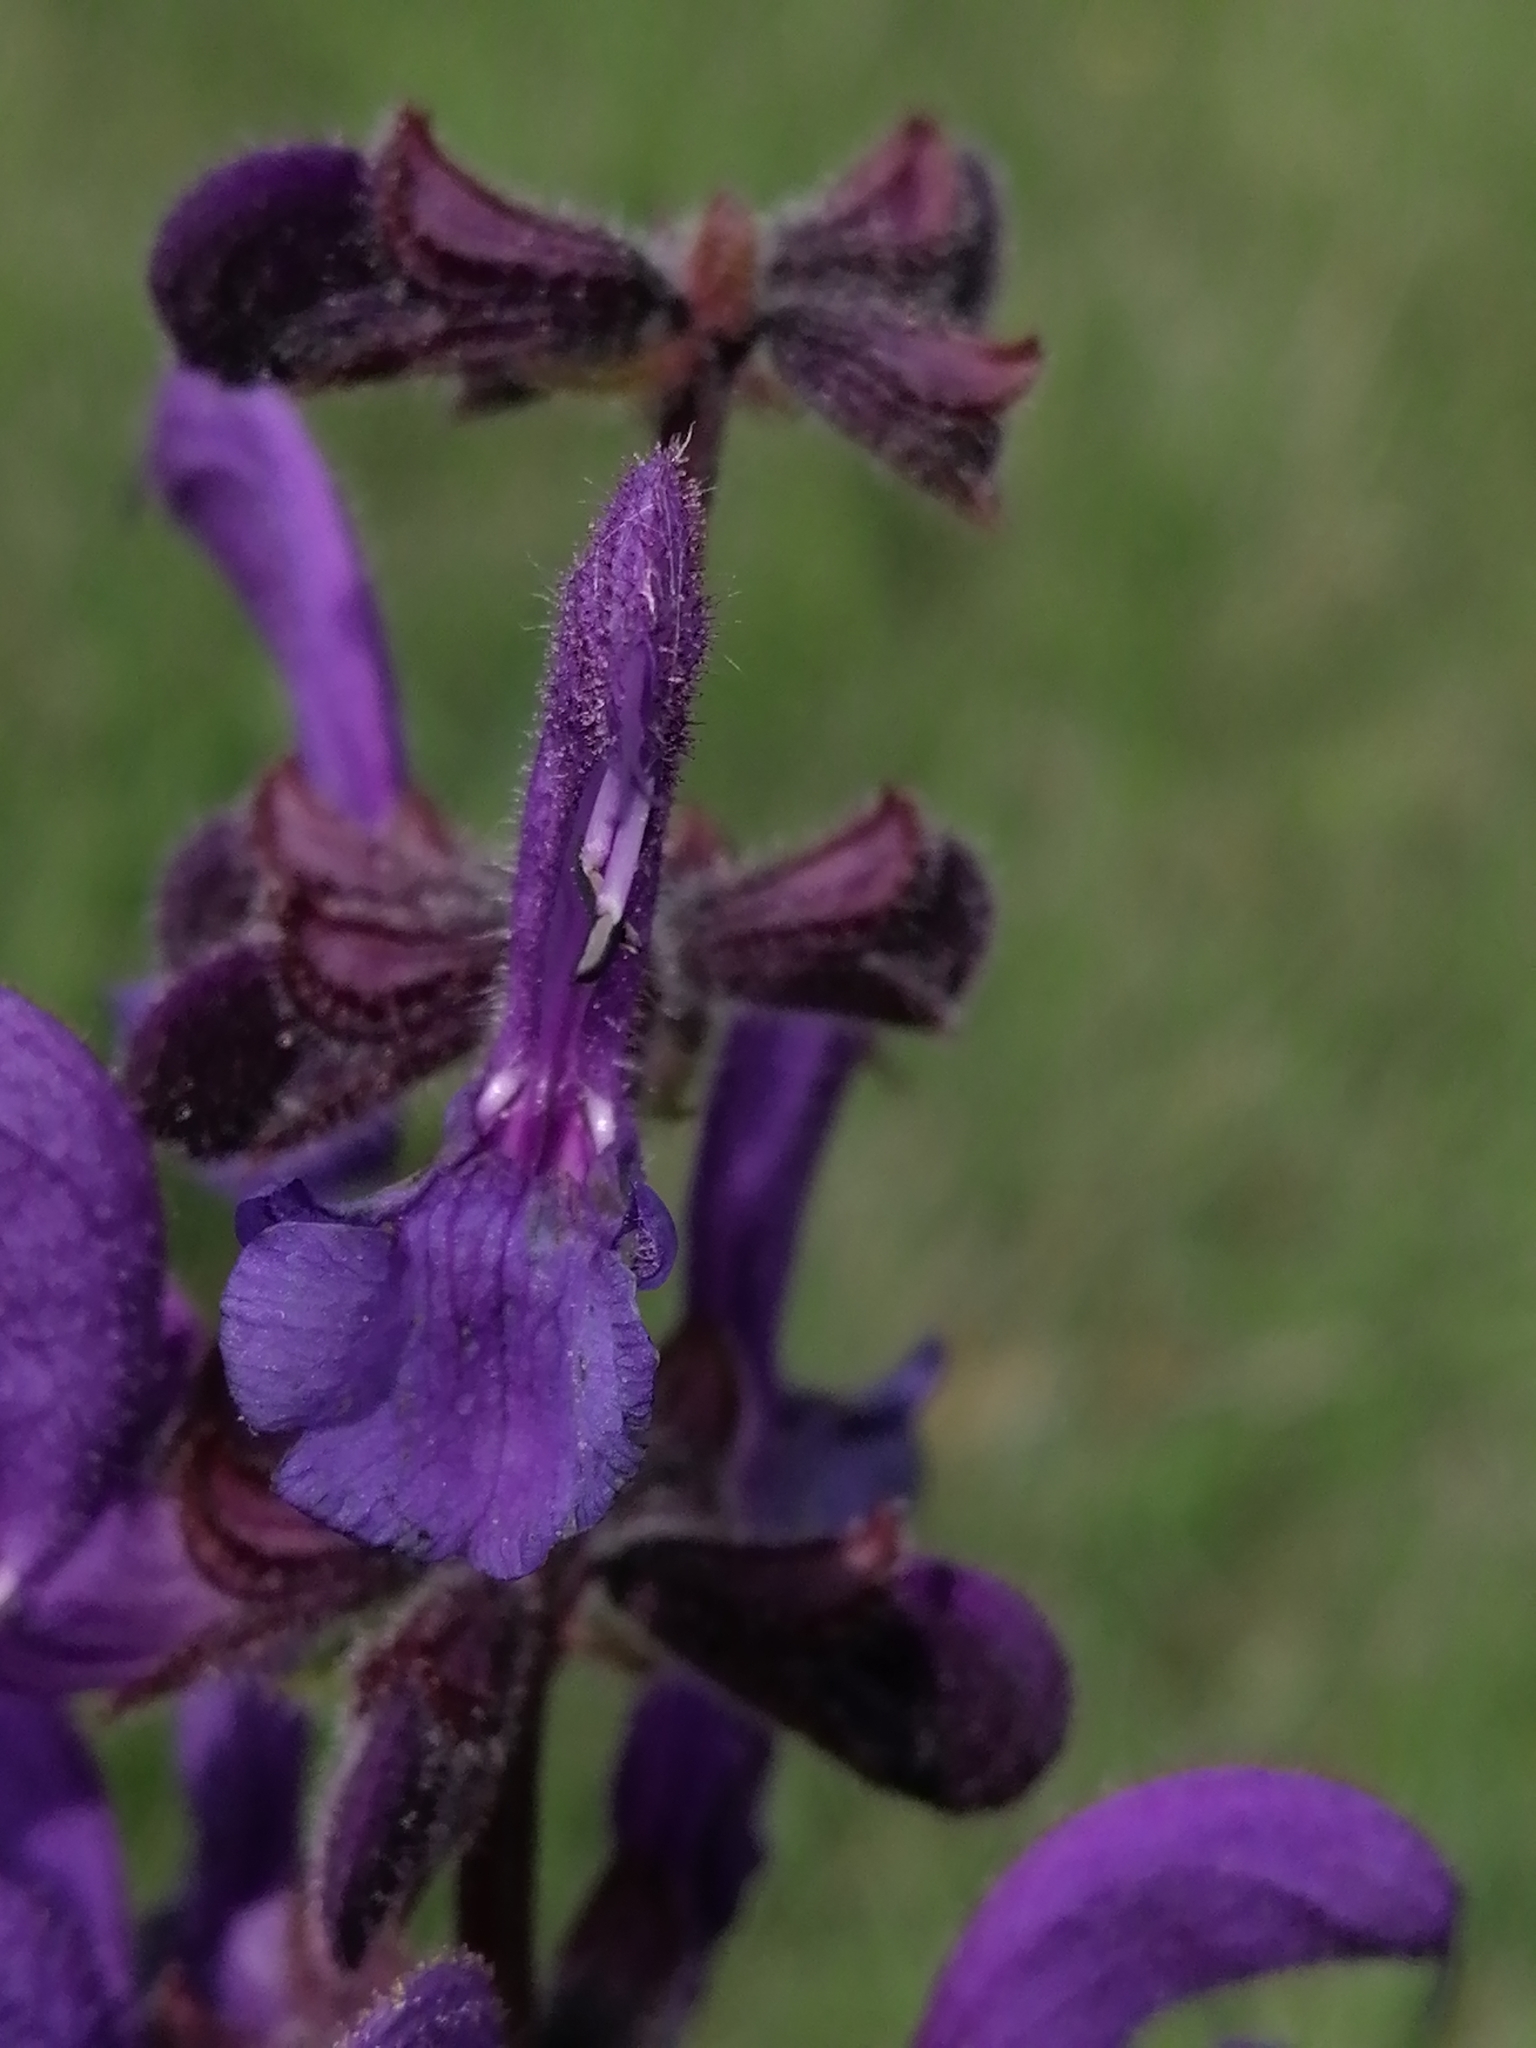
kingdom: Plantae
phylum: Tracheophyta
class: Magnoliopsida
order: Lamiales
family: Lamiaceae
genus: Salvia
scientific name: Salvia pratensis
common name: Meadow sage
